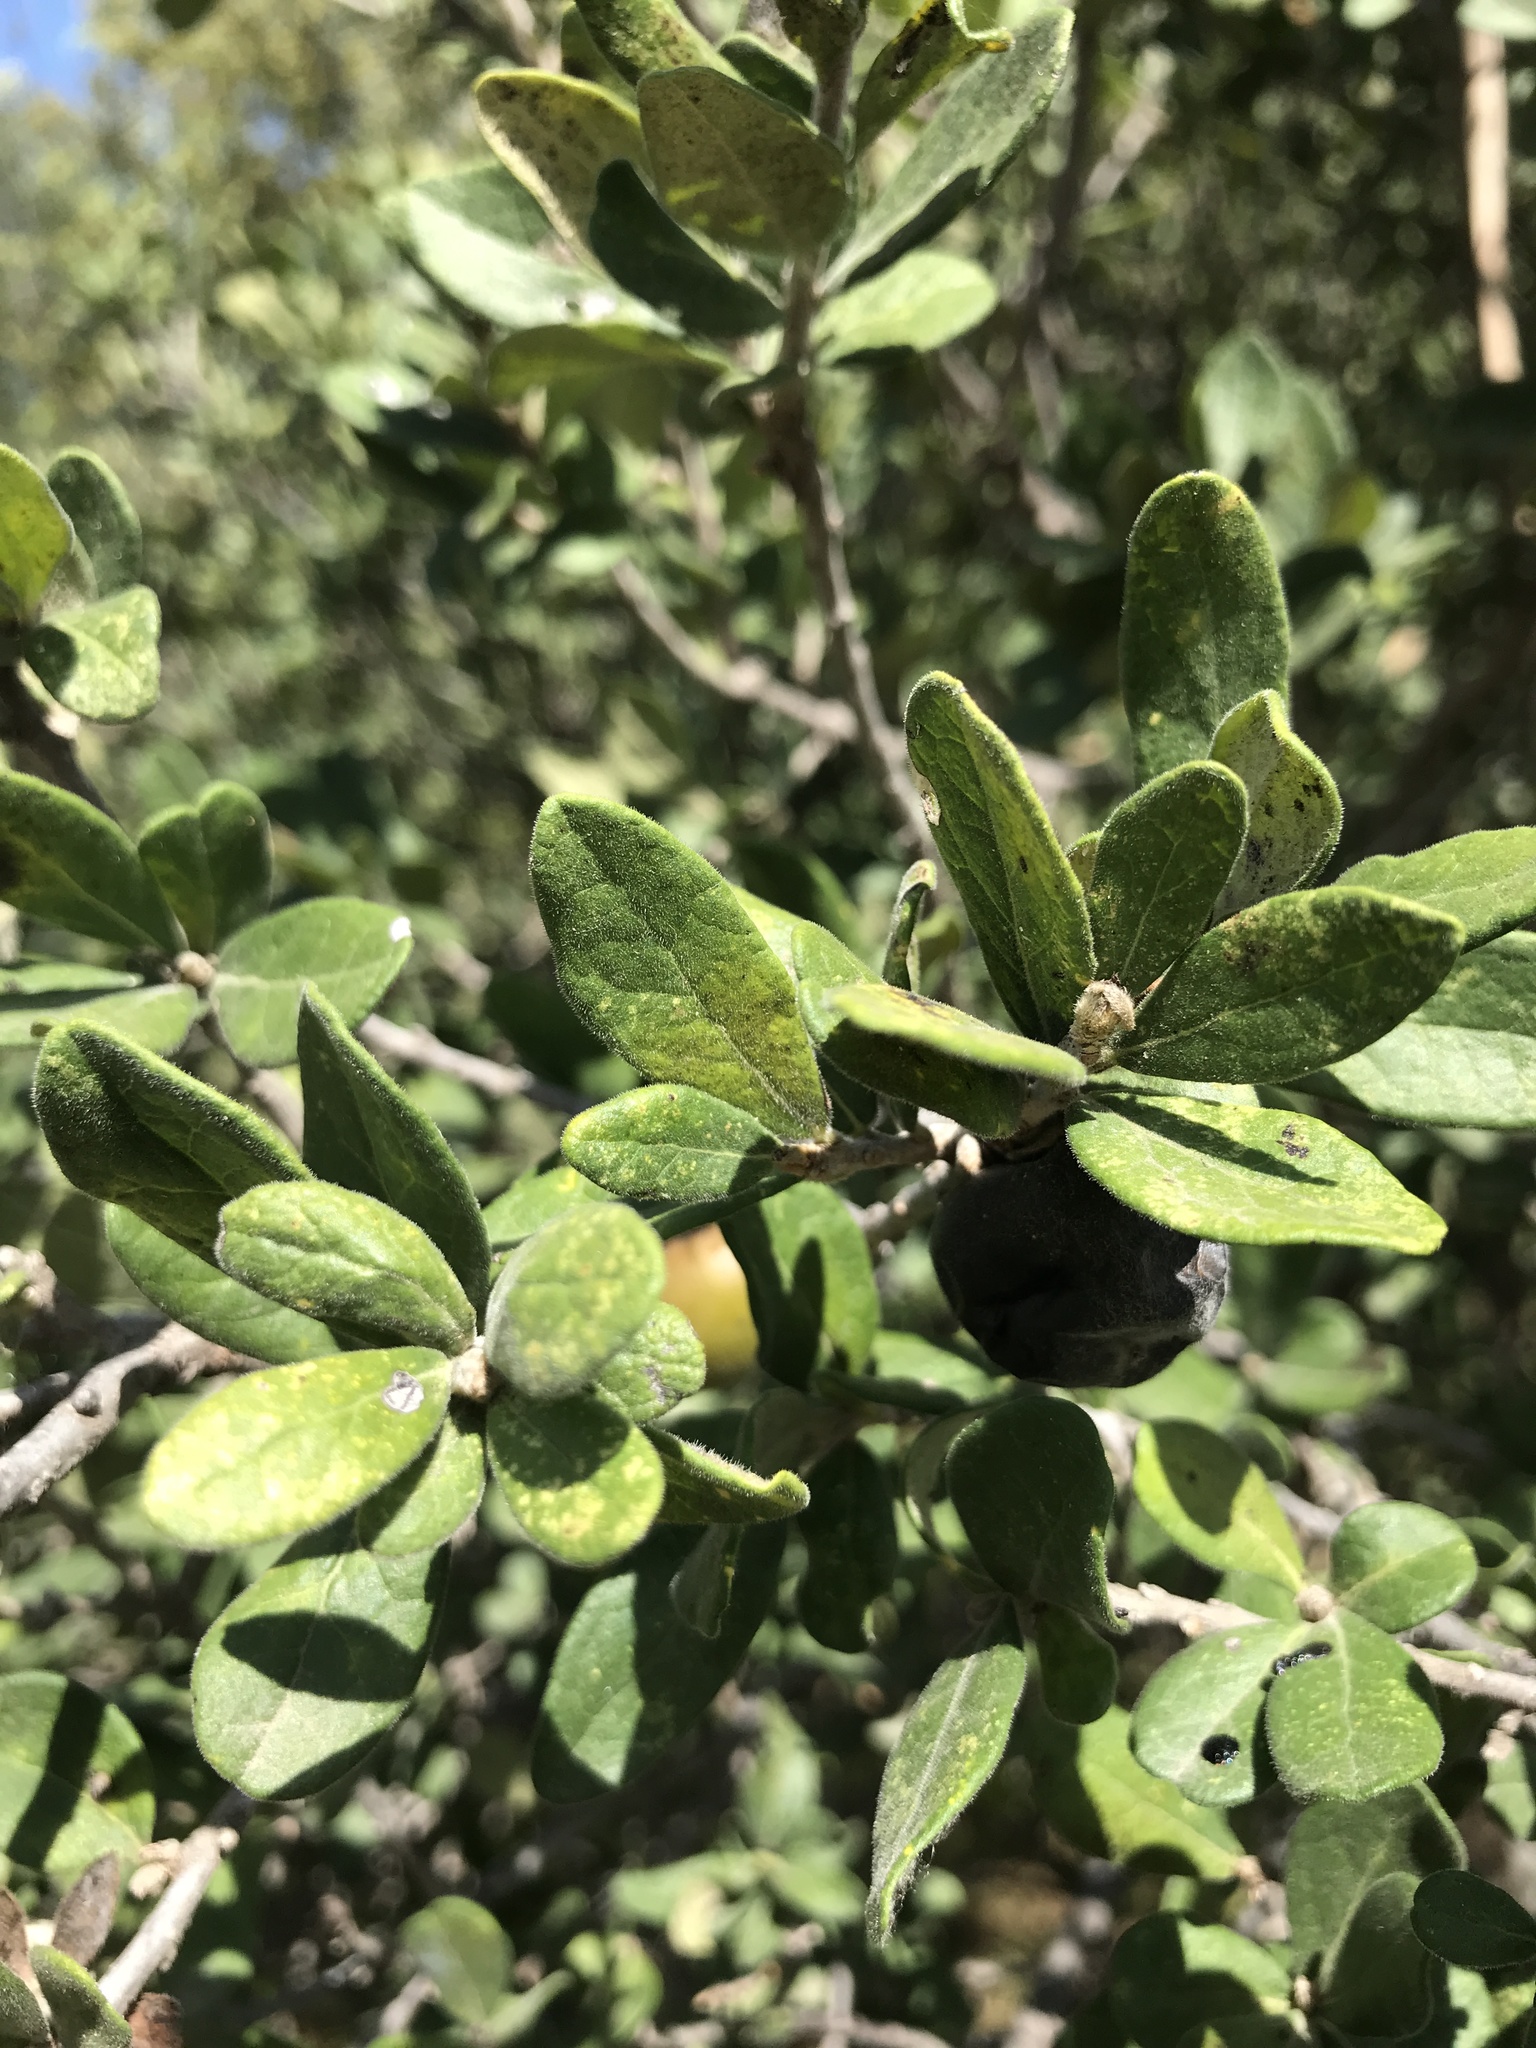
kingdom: Plantae
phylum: Tracheophyta
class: Magnoliopsida
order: Ericales
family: Ebenaceae
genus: Diospyros
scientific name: Diospyros texana
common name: Texas persimmon
